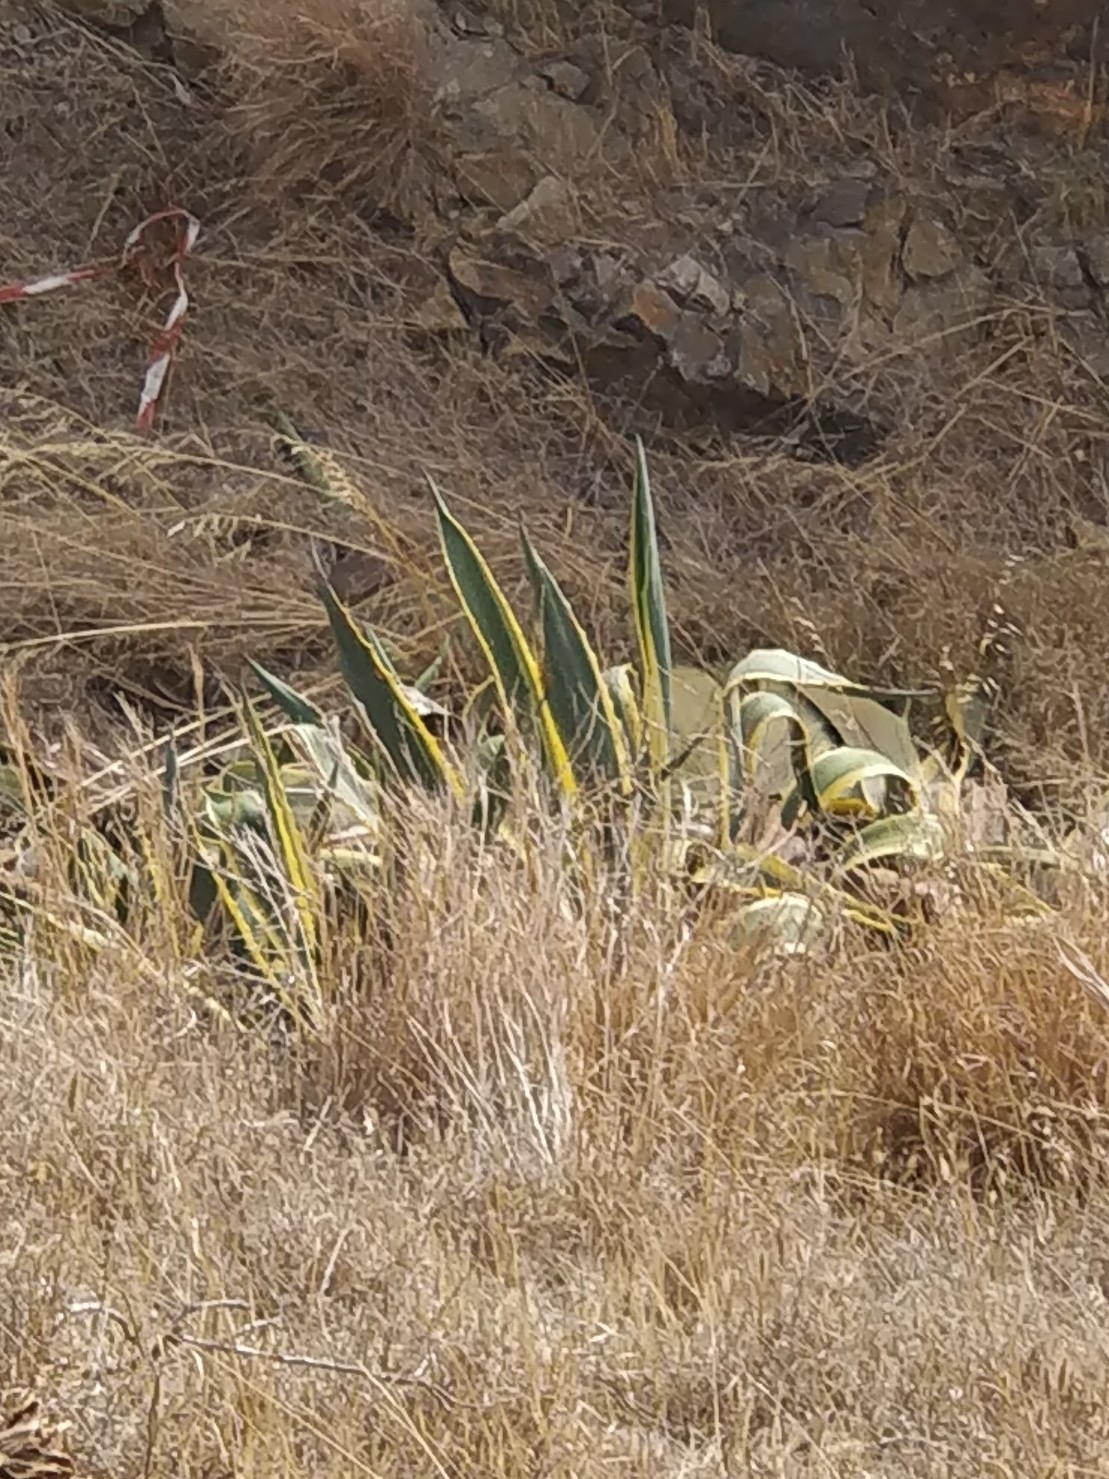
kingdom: Plantae
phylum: Tracheophyta
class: Liliopsida
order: Asparagales
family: Asparagaceae
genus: Agave
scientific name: Agave americana
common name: Centuryplant
